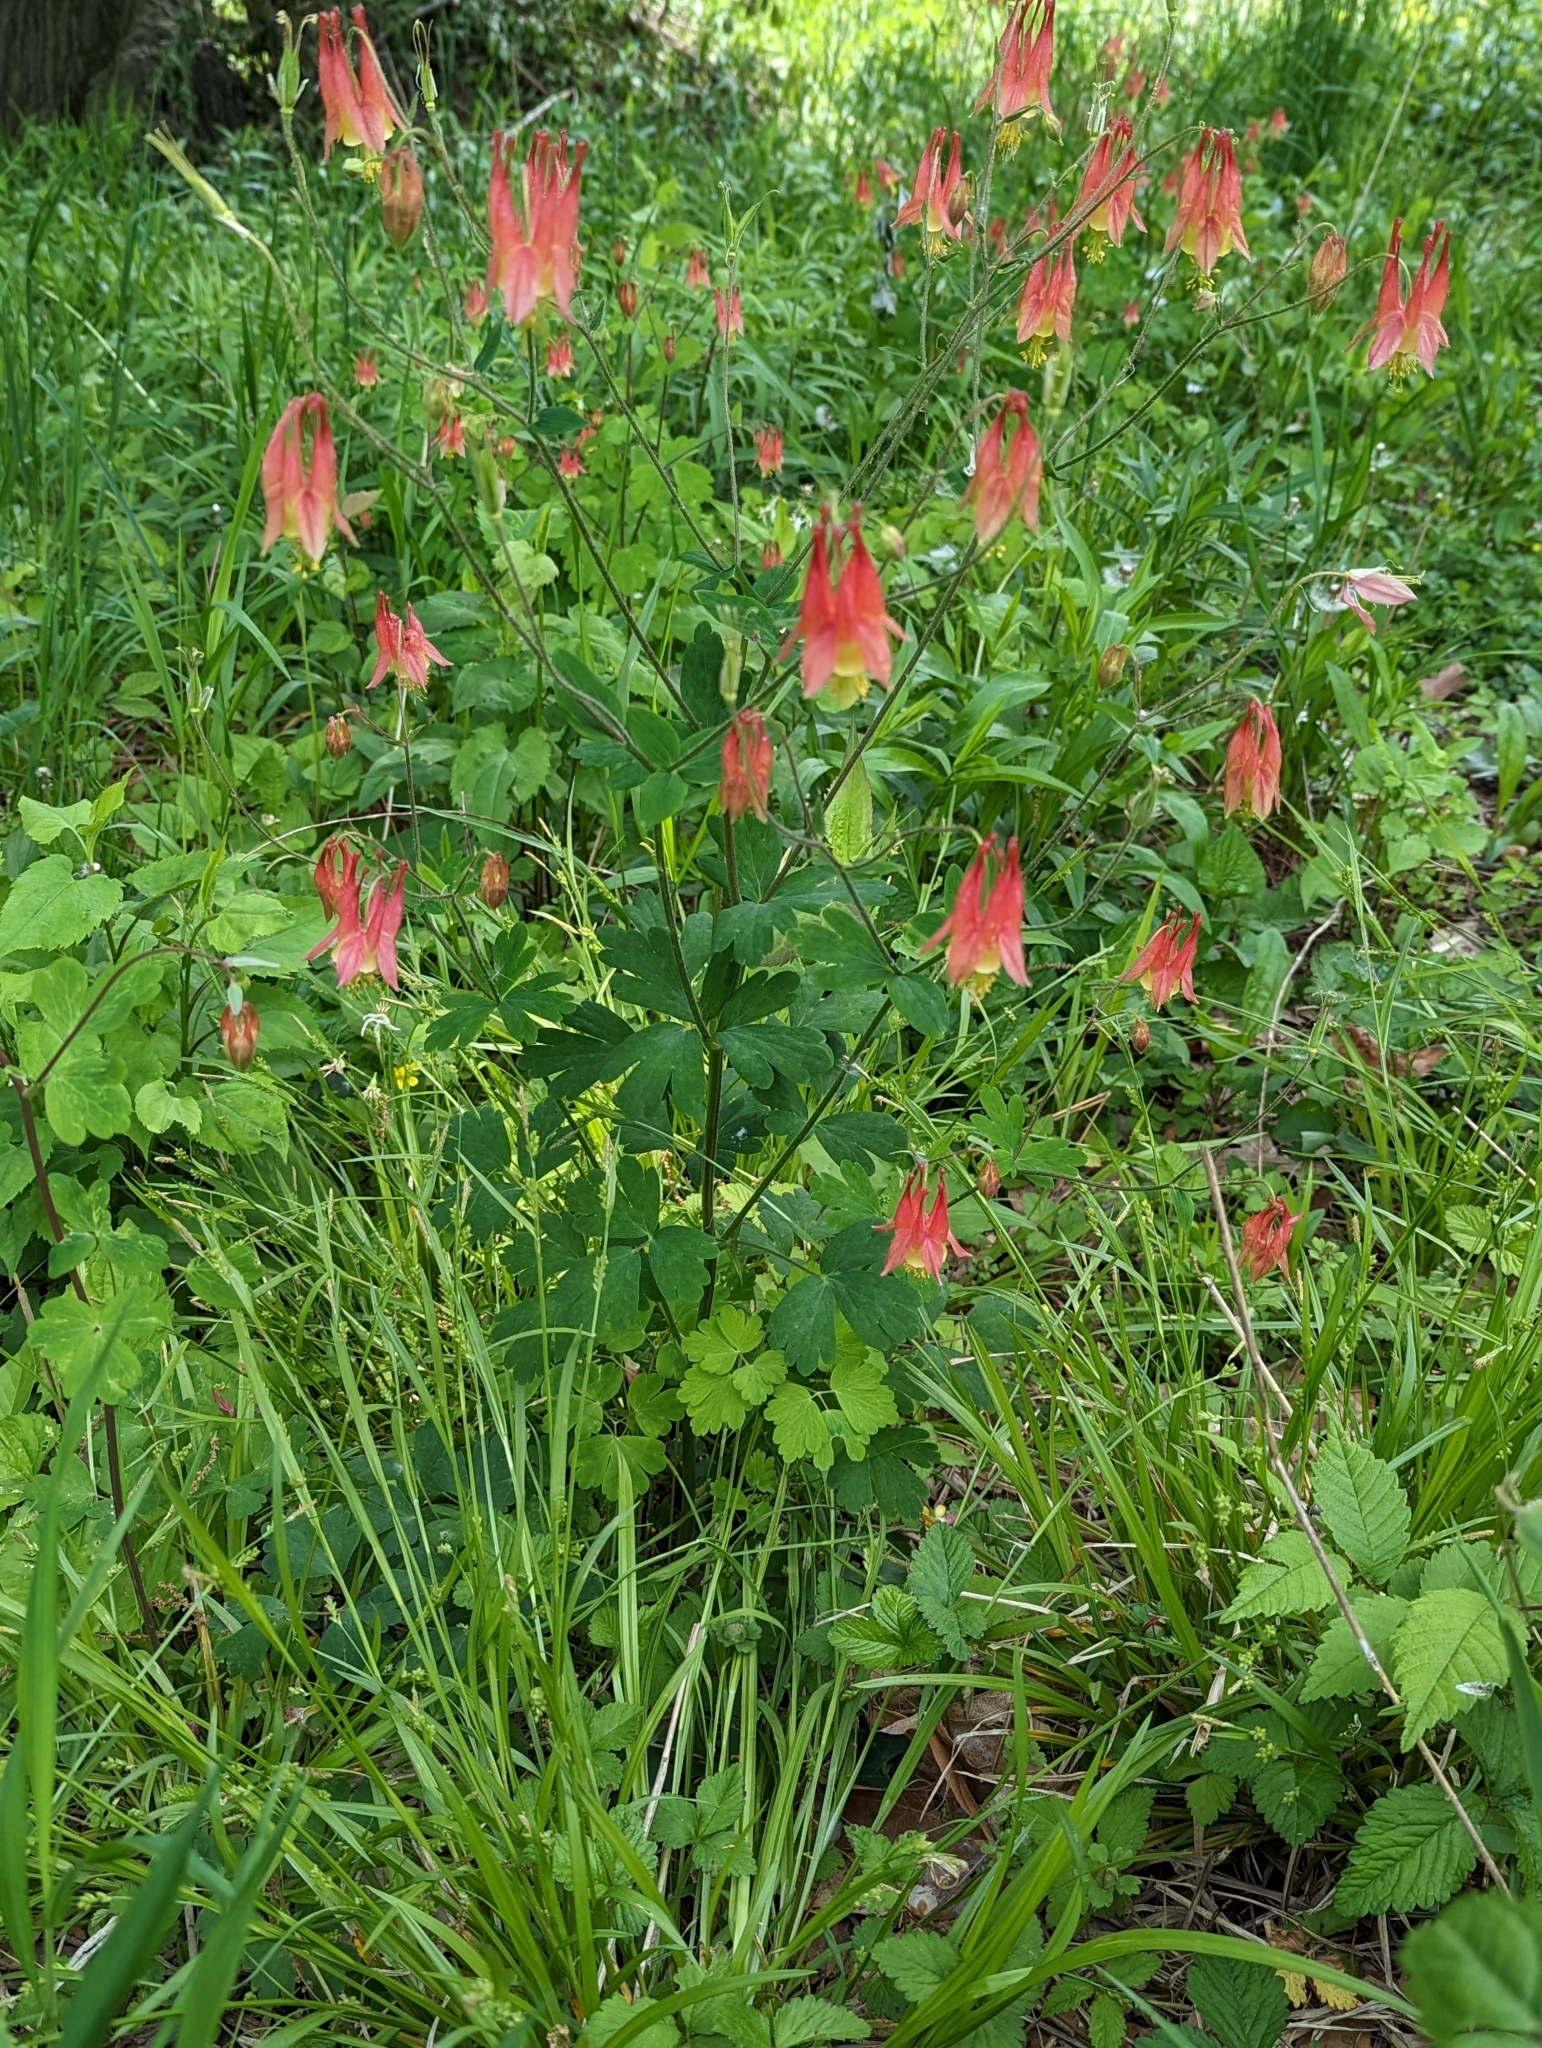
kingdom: Plantae
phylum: Tracheophyta
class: Magnoliopsida
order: Ranunculales
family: Ranunculaceae
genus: Aquilegia
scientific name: Aquilegia canadensis
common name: American columbine
